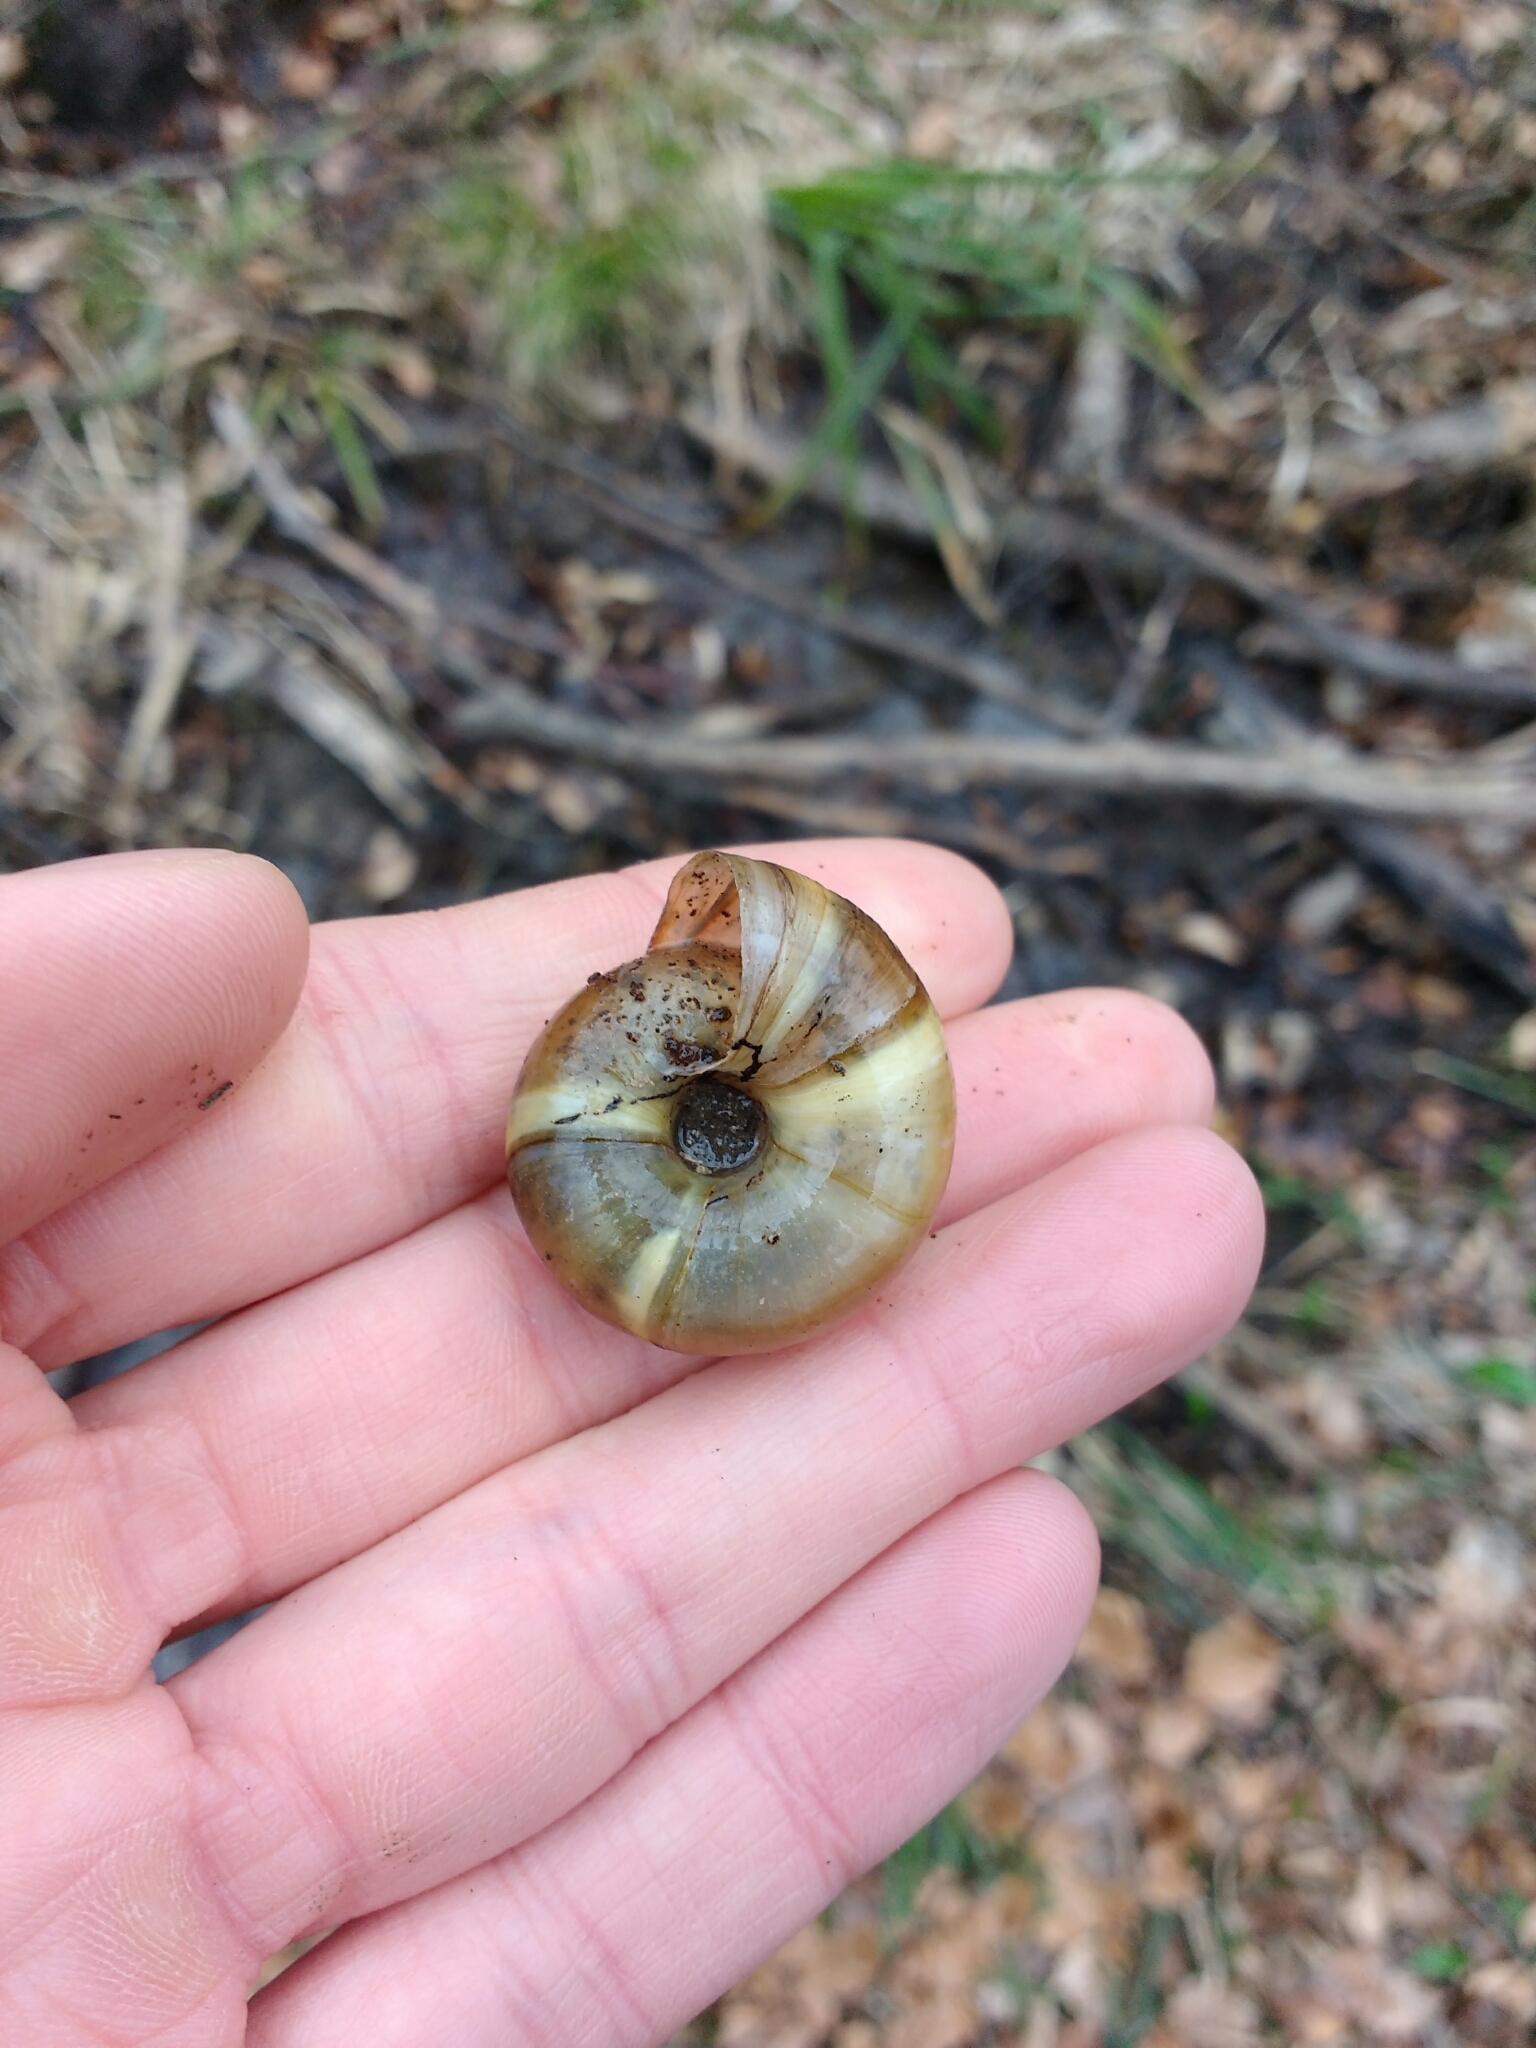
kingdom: Animalia
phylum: Mollusca
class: Gastropoda
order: Stylommatophora
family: Zonitidae
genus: Aegopis
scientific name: Aegopis verticillus
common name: Giant glass snail
